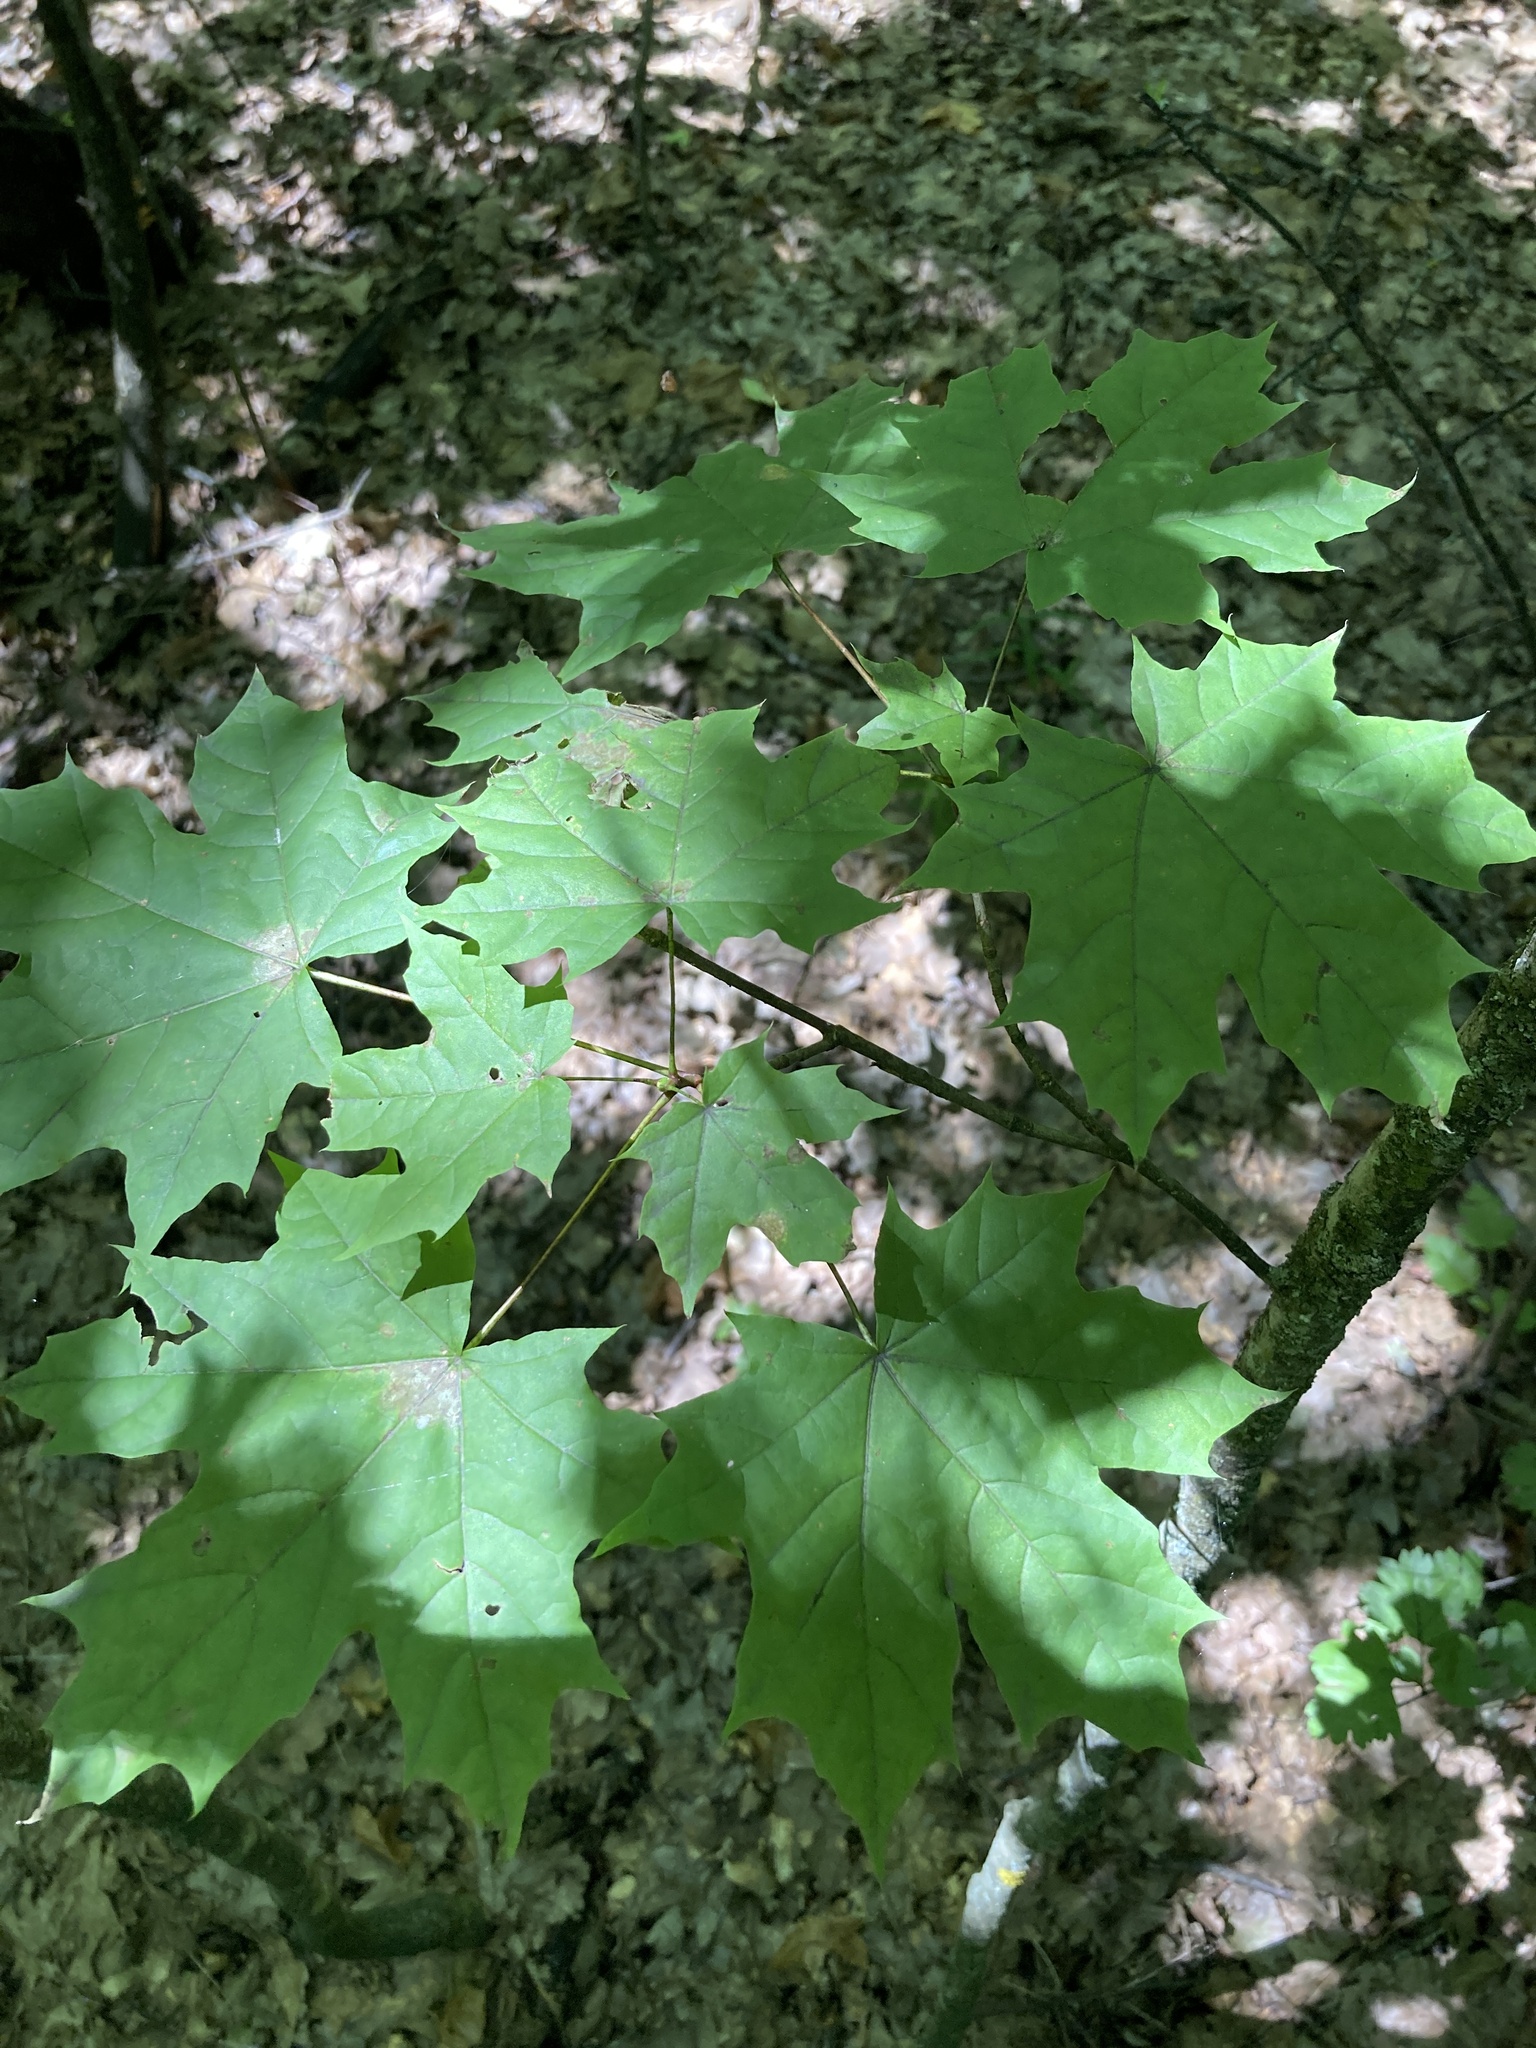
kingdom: Plantae
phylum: Tracheophyta
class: Magnoliopsida
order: Sapindales
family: Sapindaceae
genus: Acer
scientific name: Acer platanoides
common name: Norway maple
